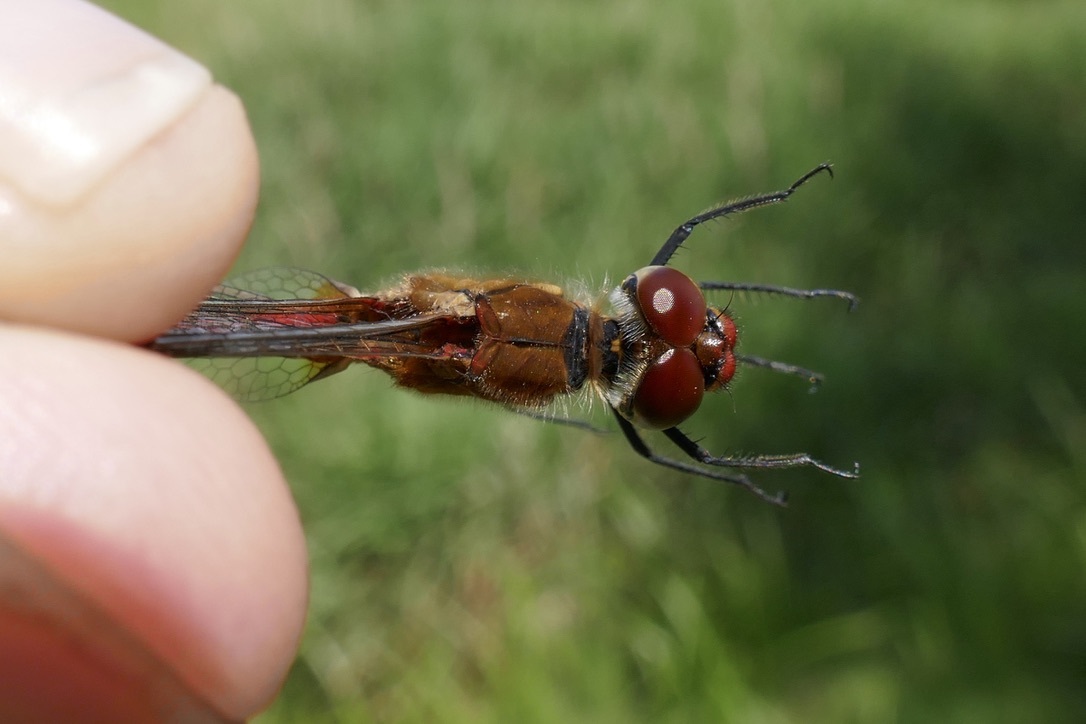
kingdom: Animalia
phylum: Arthropoda
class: Insecta
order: Odonata
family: Libellulidae
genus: Sympetrum
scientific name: Sympetrum sanguineum
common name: Ruddy darter
